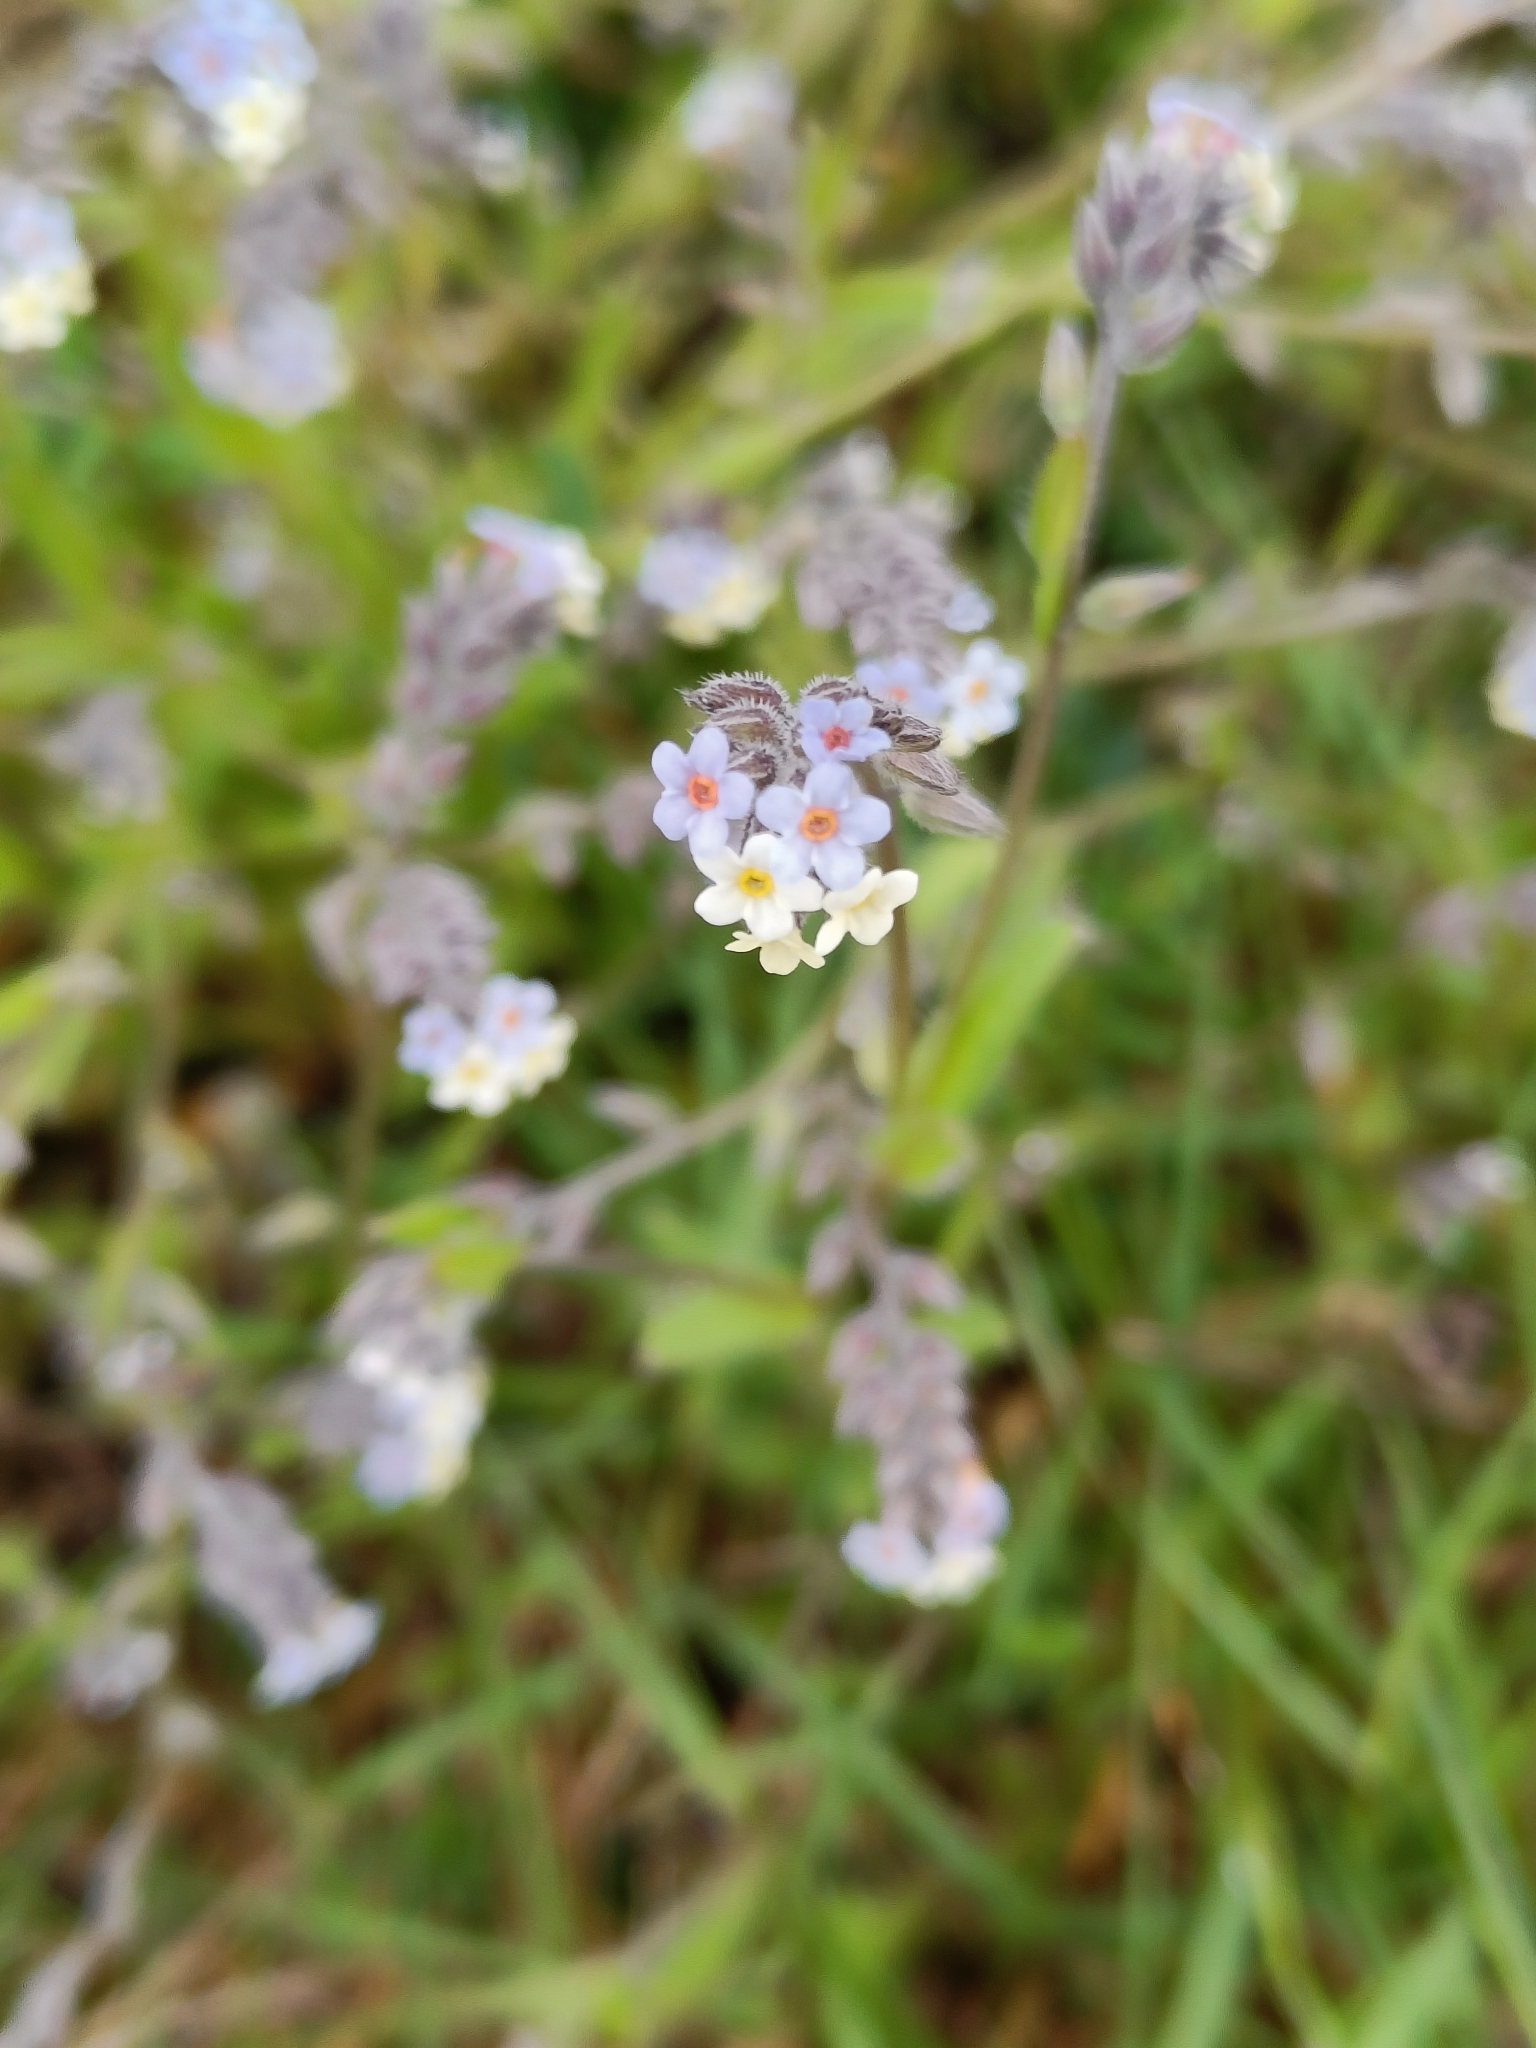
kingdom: Plantae
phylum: Tracheophyta
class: Magnoliopsida
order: Boraginales
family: Boraginaceae
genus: Myosotis
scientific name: Myosotis discolor
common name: Changing forget-me-not
